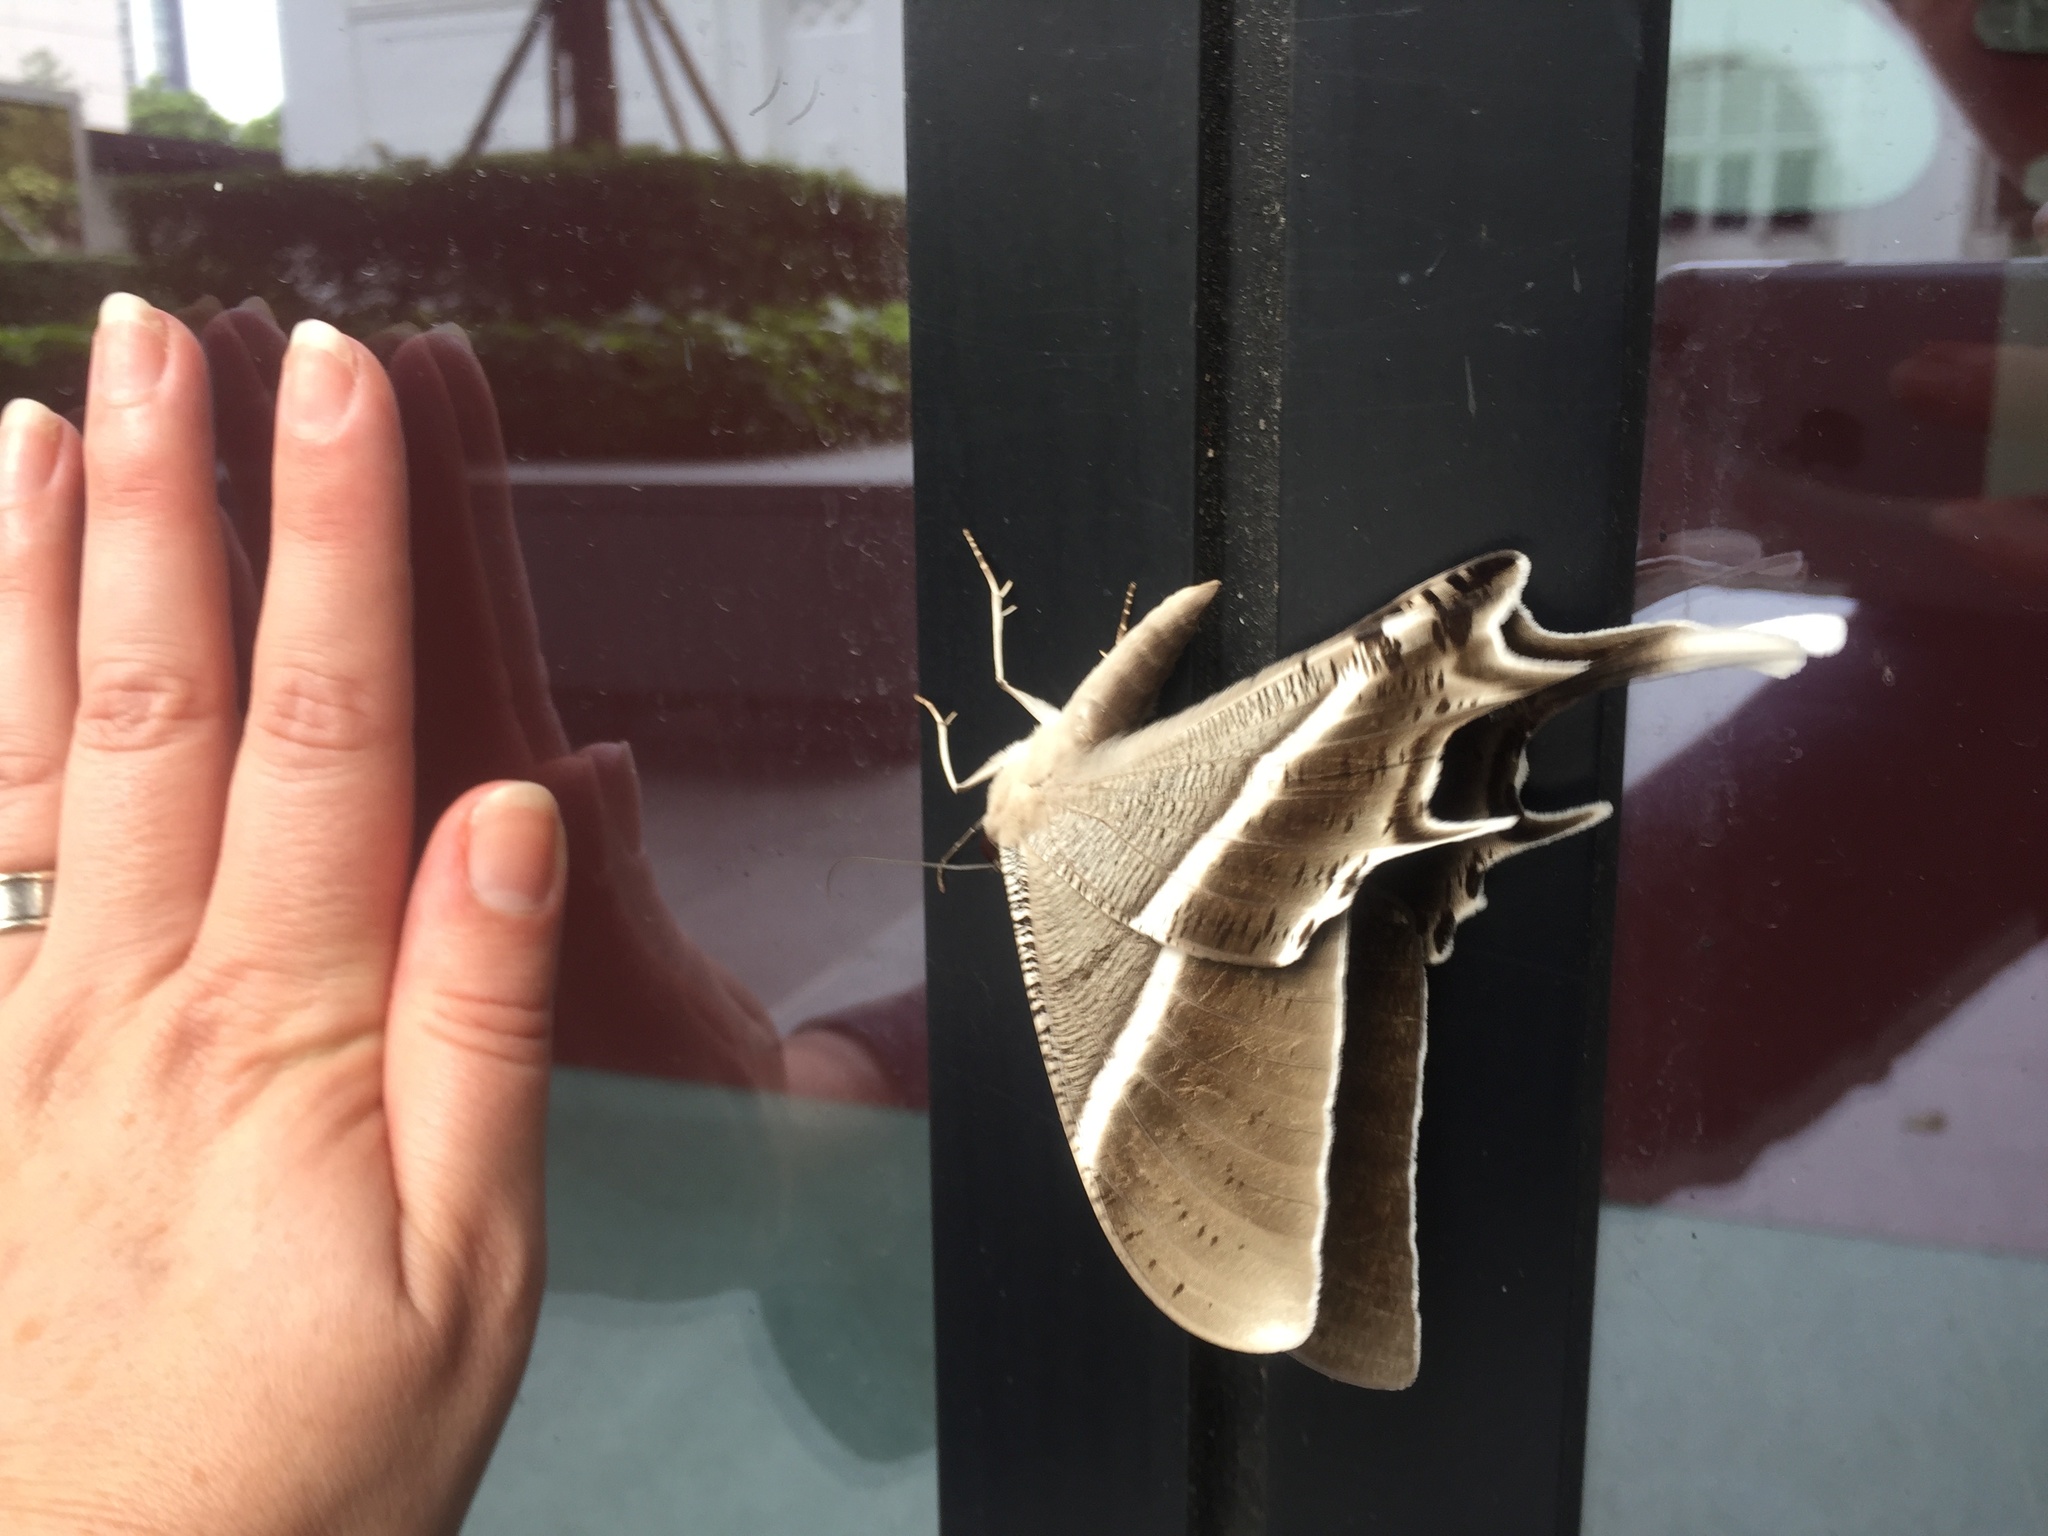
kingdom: Animalia
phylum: Arthropoda
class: Insecta
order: Lepidoptera
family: Uraniidae
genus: Lyssa
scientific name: Lyssa zampa
